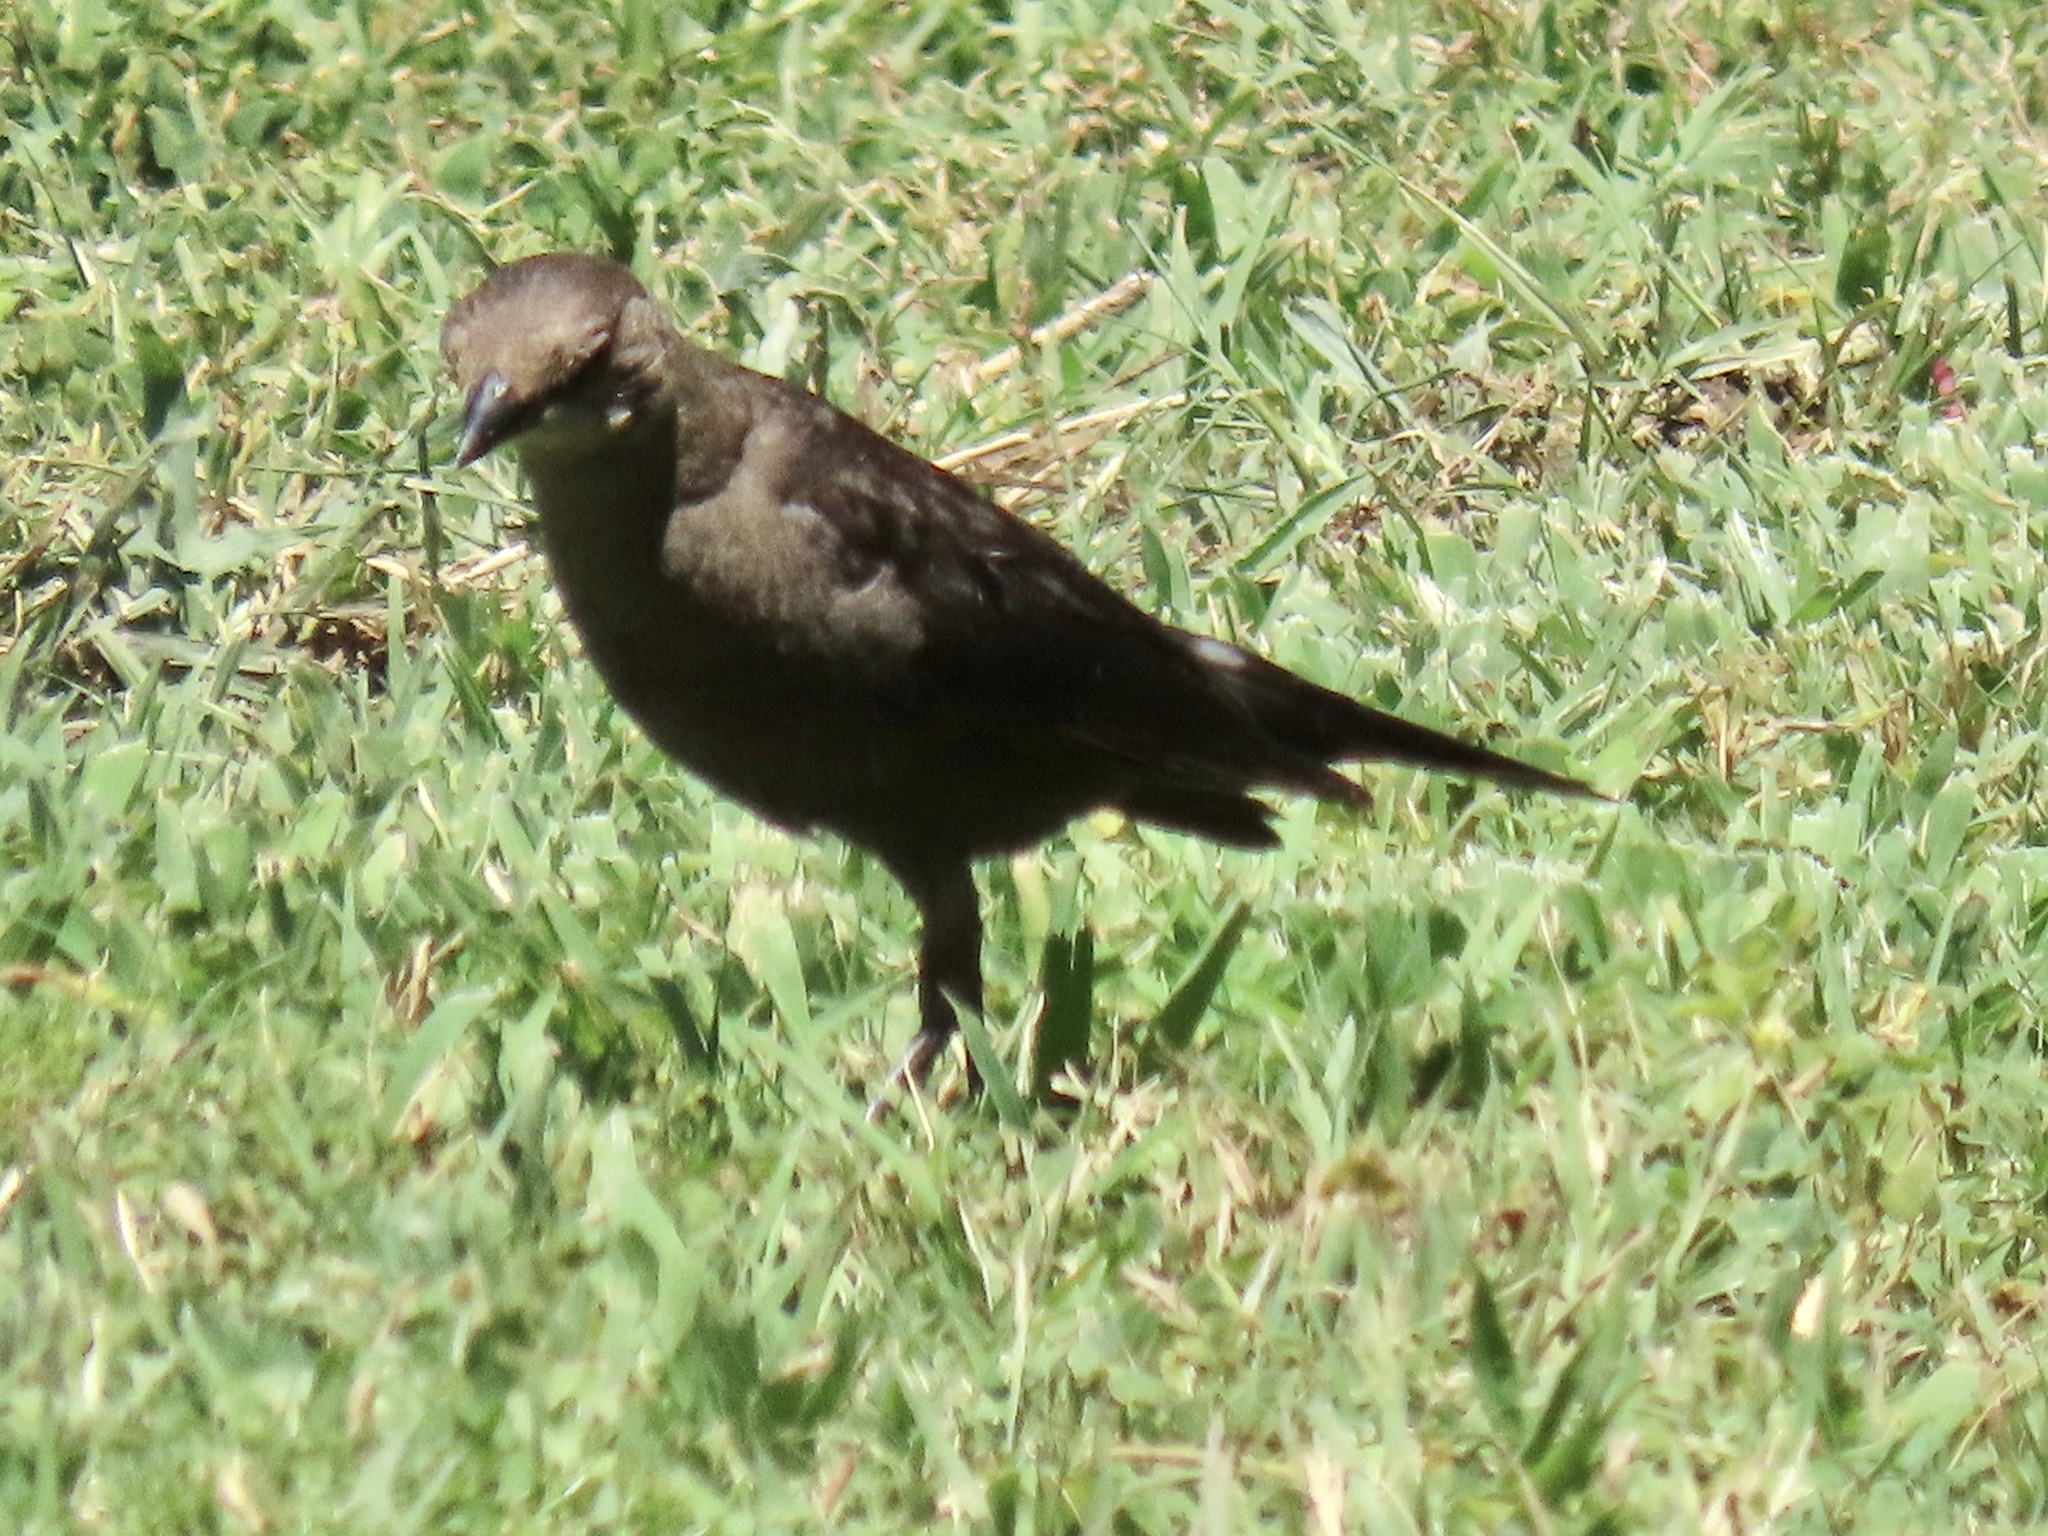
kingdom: Animalia
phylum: Chordata
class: Aves
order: Passeriformes
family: Icteridae
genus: Euphagus
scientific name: Euphagus cyanocephalus
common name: Brewer's blackbird
